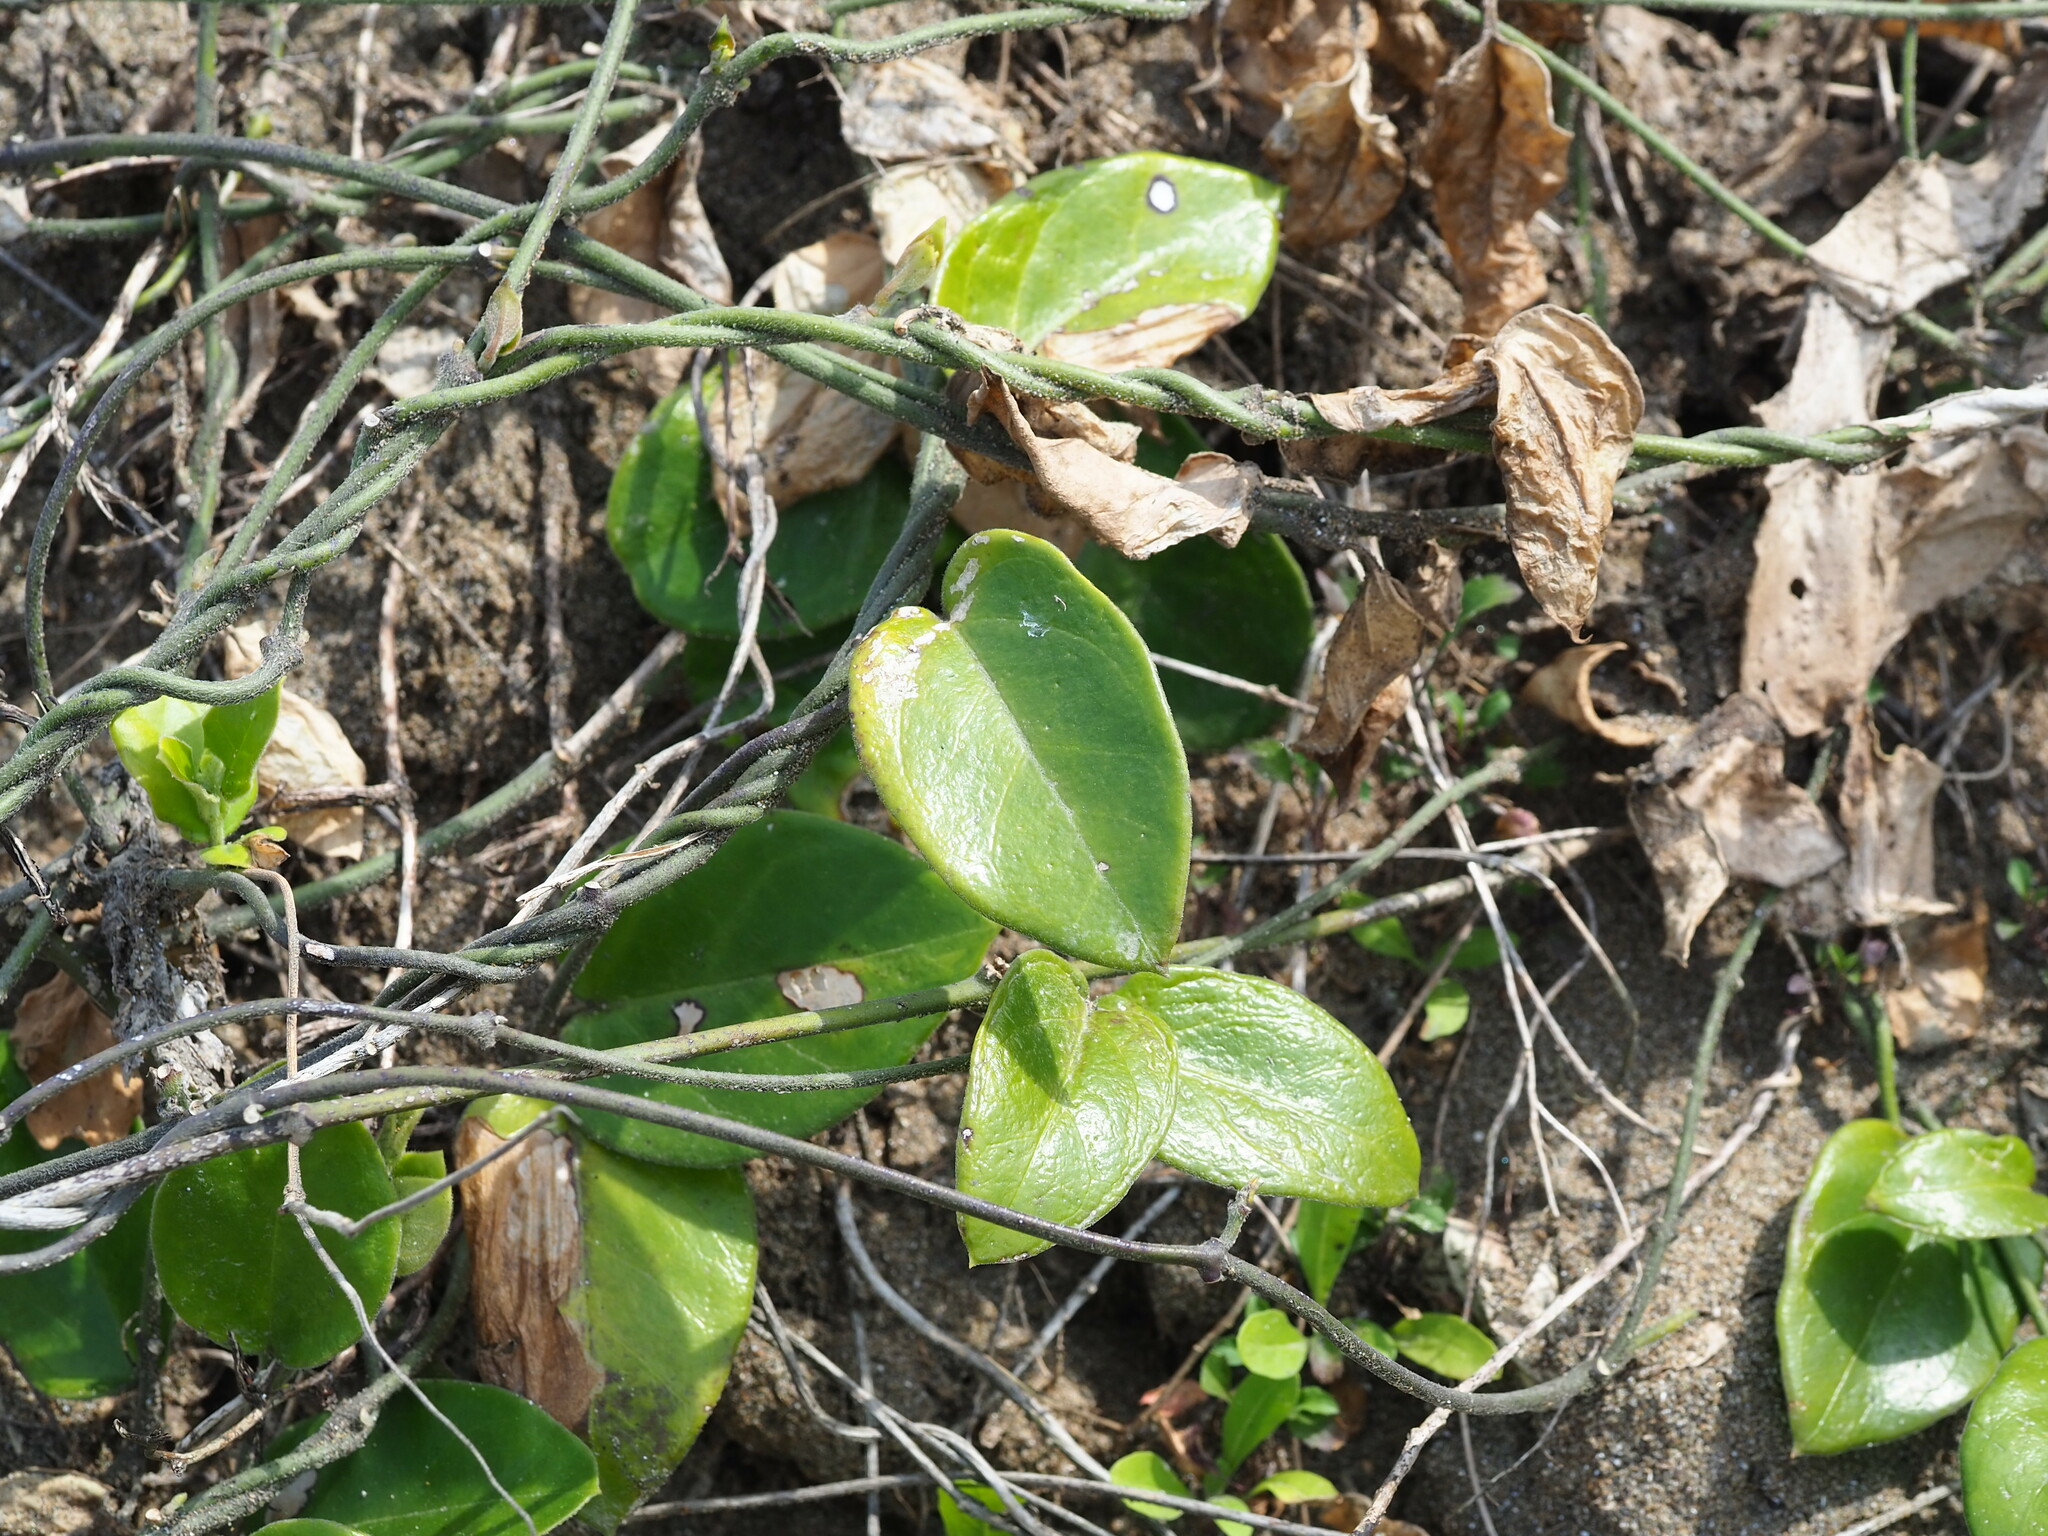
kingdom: Plantae
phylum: Tracheophyta
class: Magnoliopsida
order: Gentianales
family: Apocynaceae
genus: Vincetoxicum
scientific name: Vincetoxicum hirsutum
